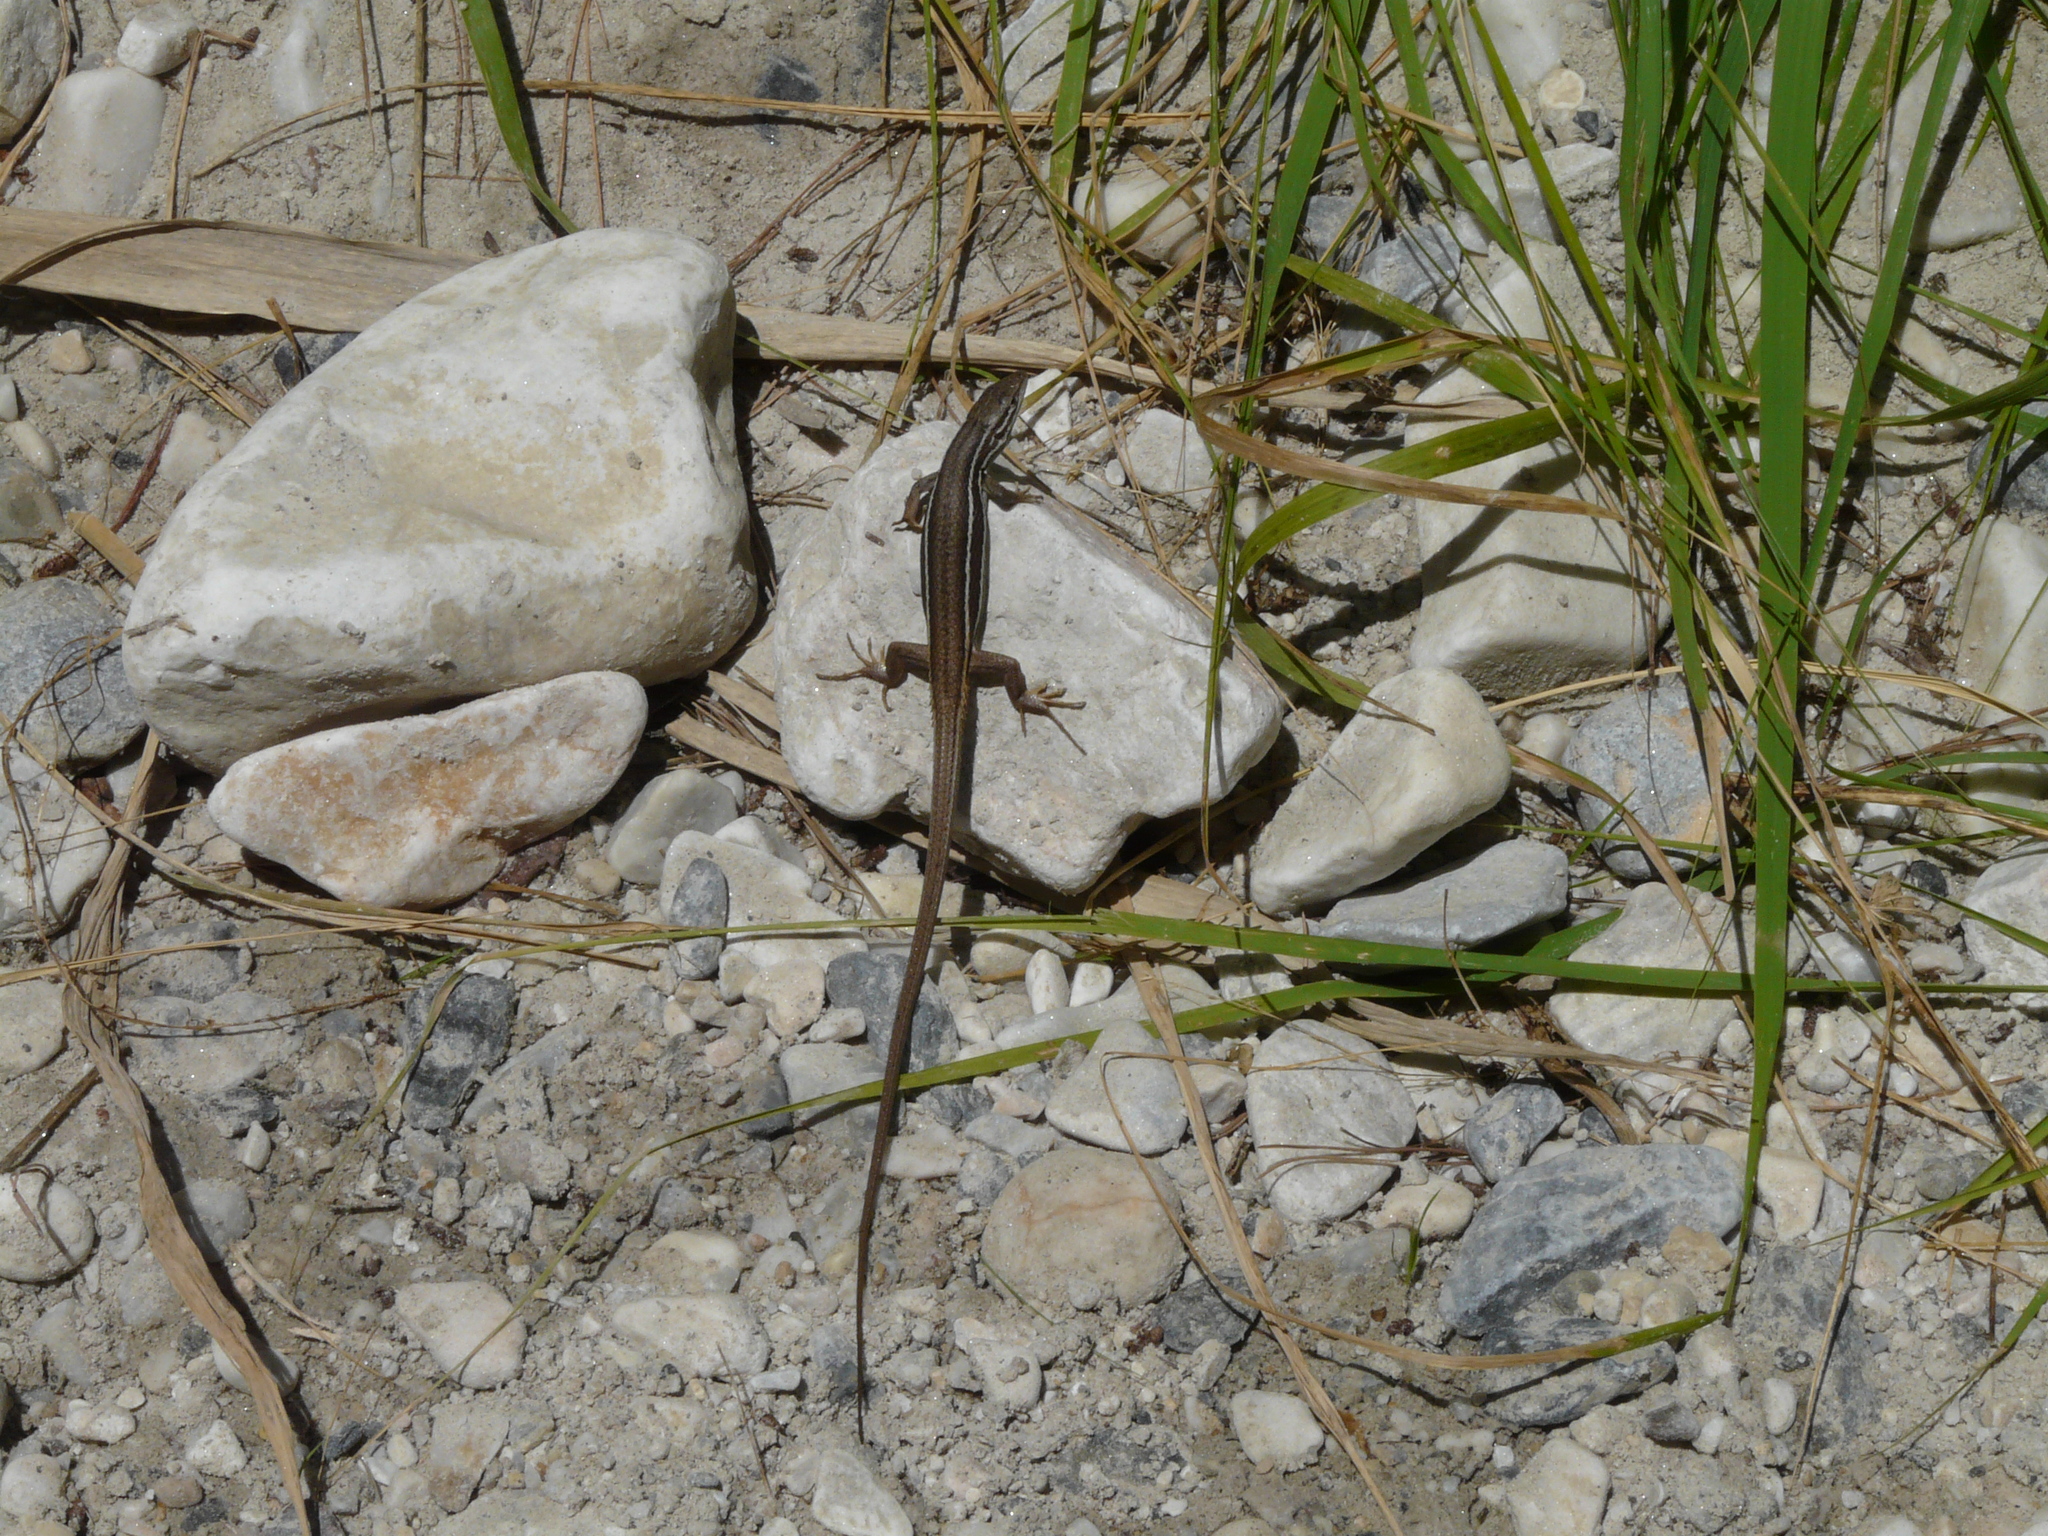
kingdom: Animalia
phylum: Chordata
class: Squamata
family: Lacertidae
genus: Psammodromus
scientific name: Psammodromus algirus
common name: Algerian psammodromus
